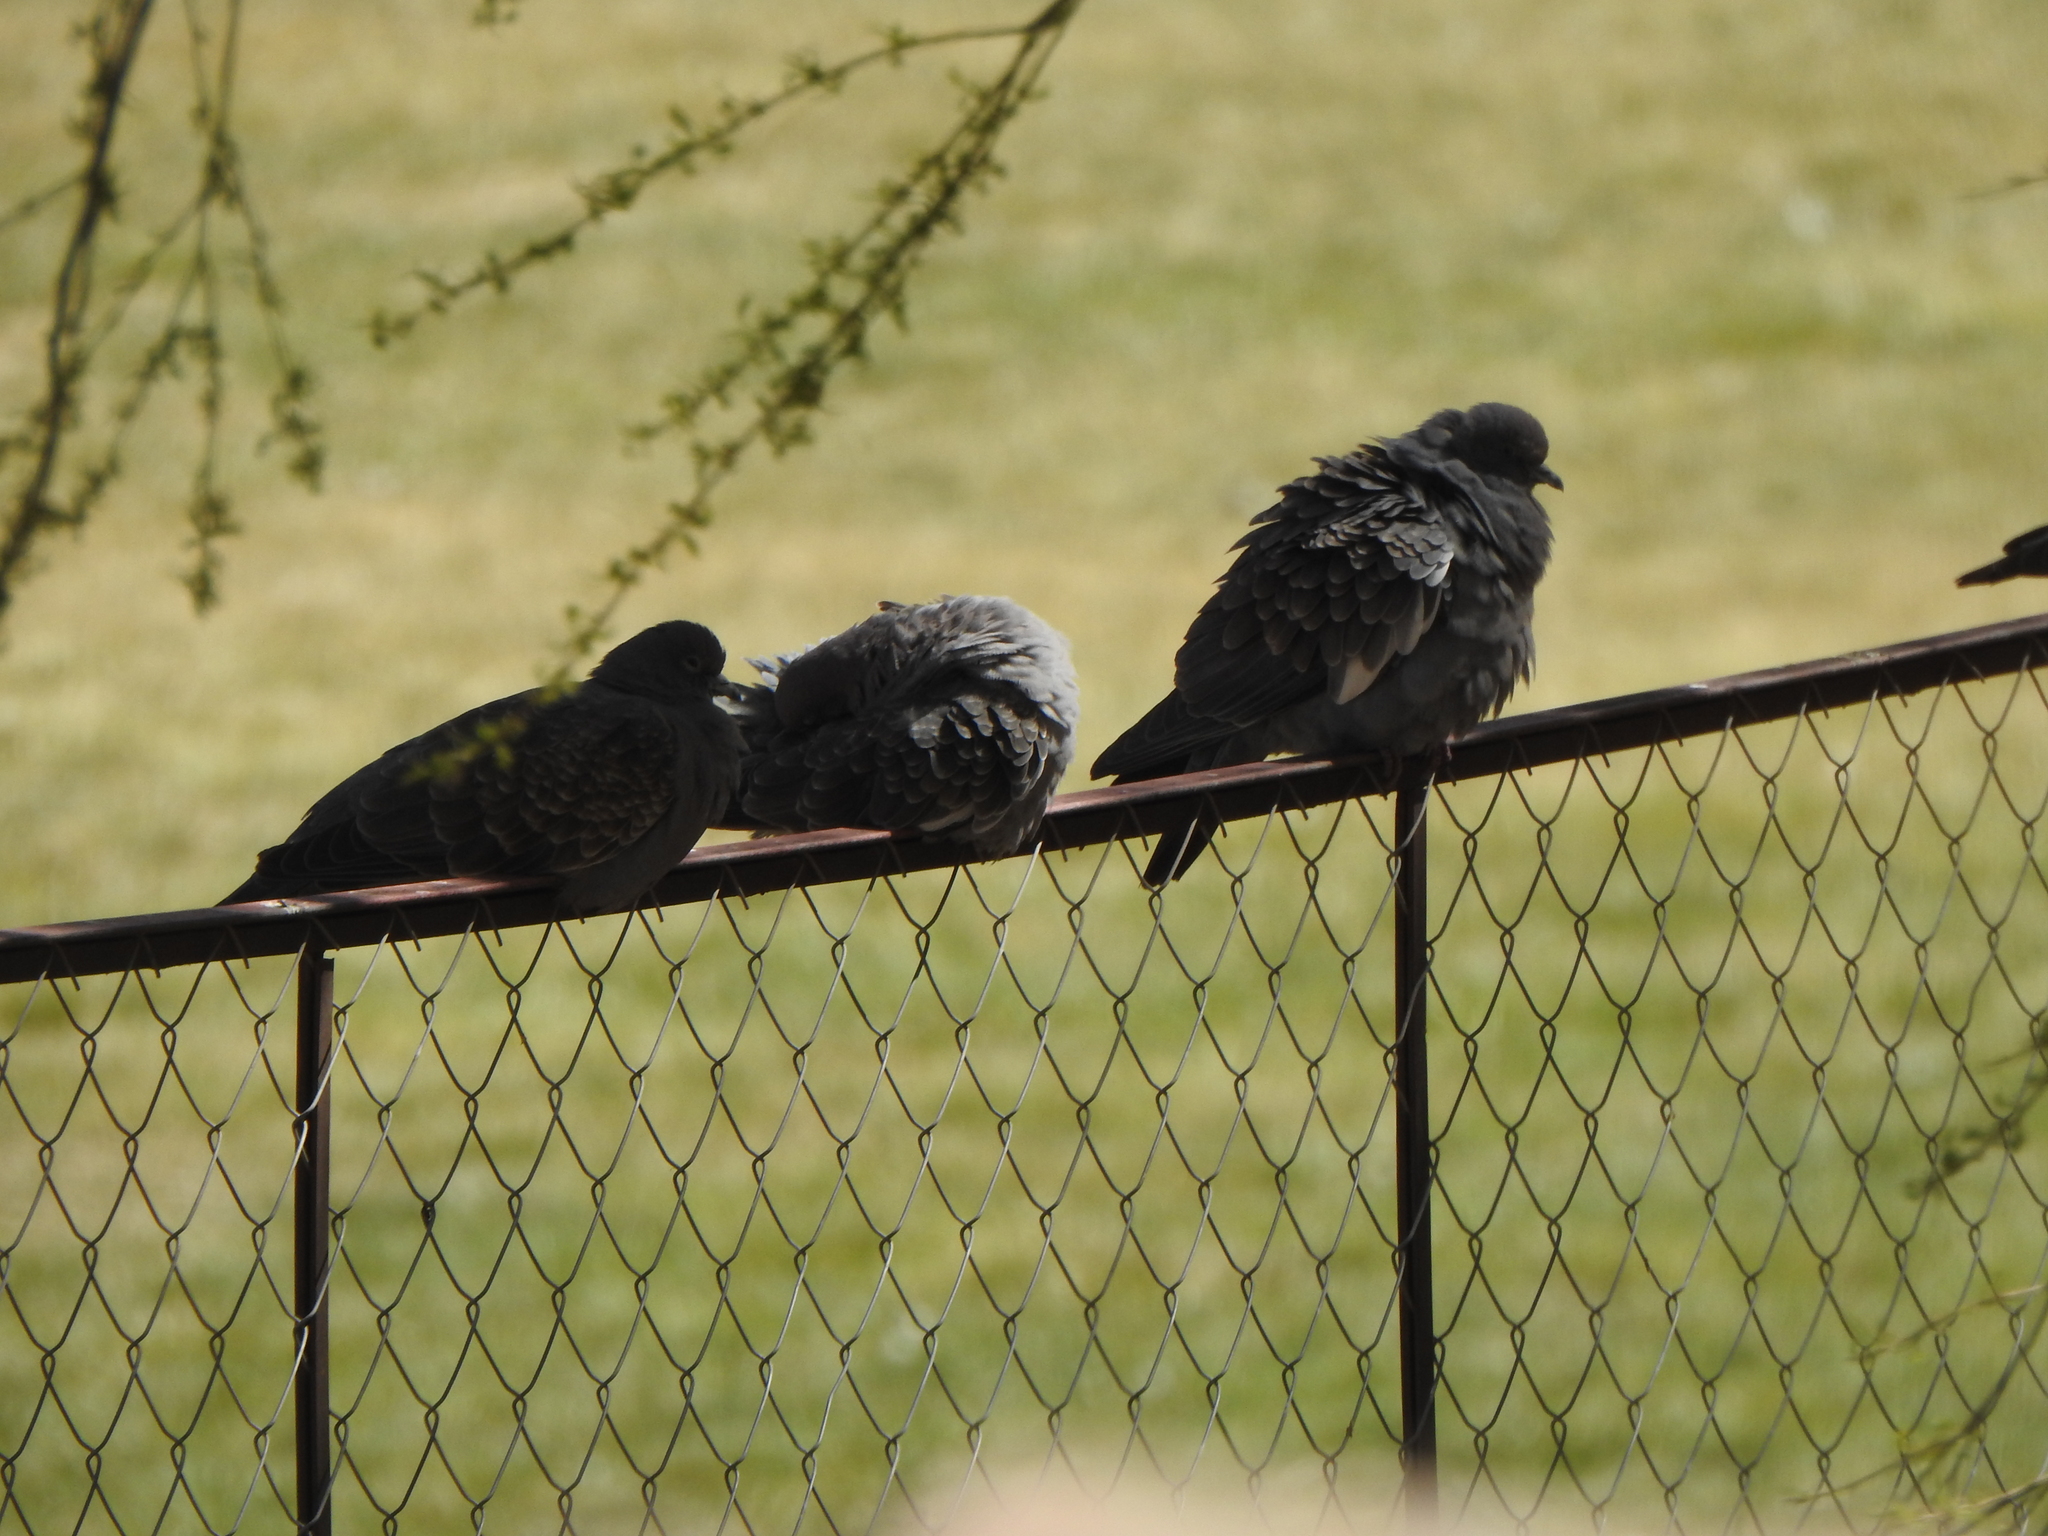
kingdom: Animalia
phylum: Chordata
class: Aves
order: Columbiformes
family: Columbidae
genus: Patagioenas
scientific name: Patagioenas maculosa
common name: Spot-winged pigeon
